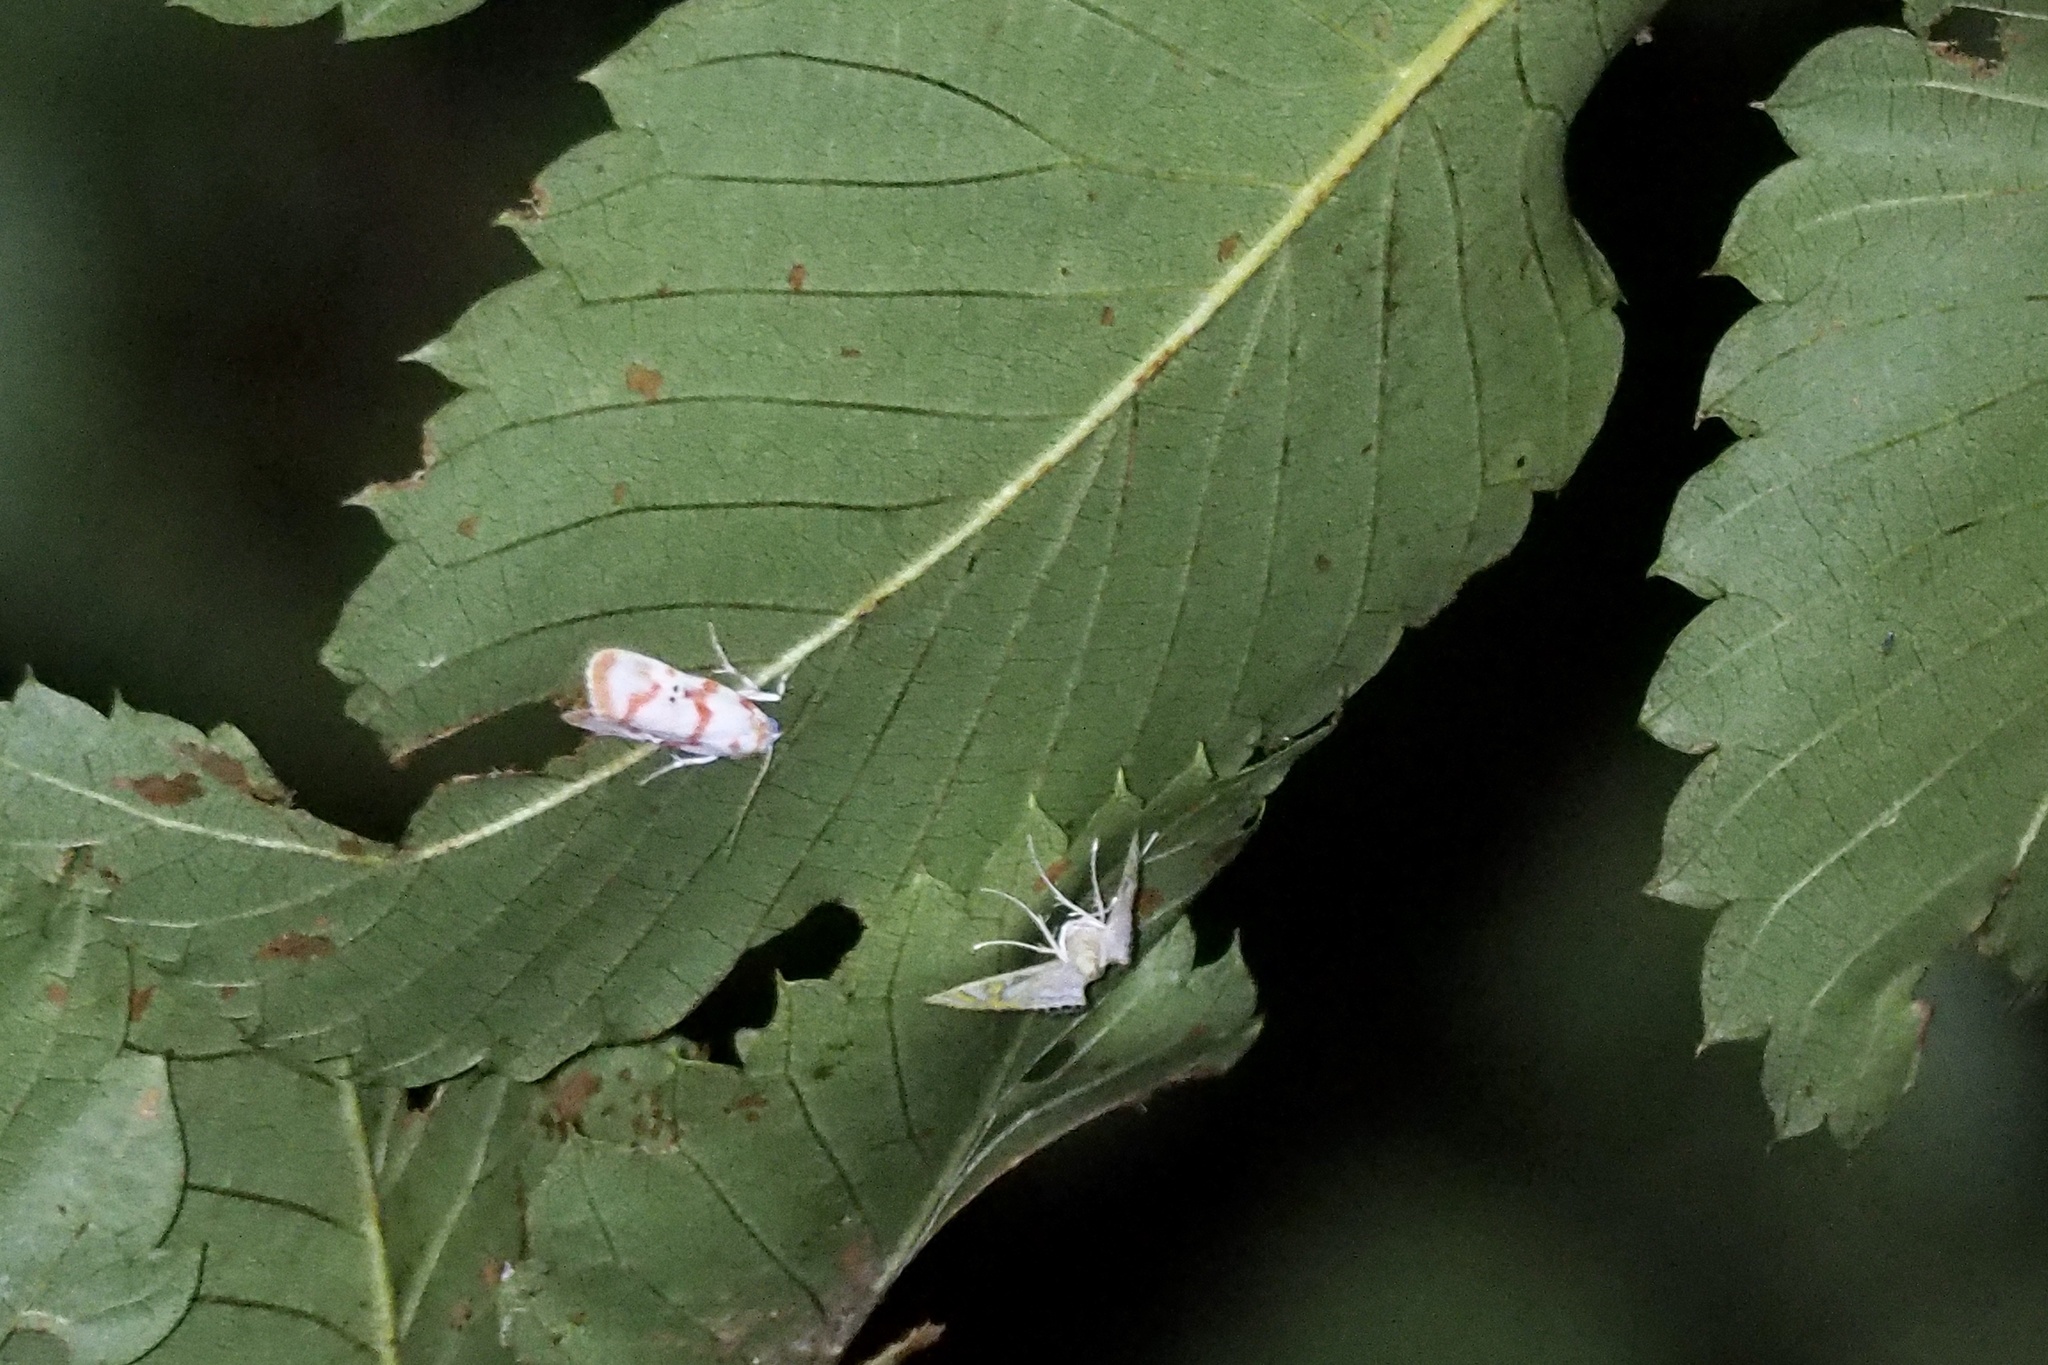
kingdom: Animalia
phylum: Arthropoda
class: Insecta
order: Lepidoptera
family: Erebidae
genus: Cyana
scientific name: Cyana hamata
